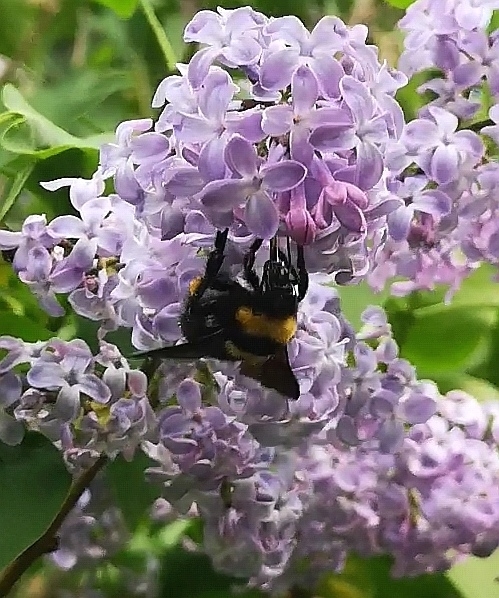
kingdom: Animalia
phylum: Arthropoda
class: Insecta
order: Hymenoptera
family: Apidae
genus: Bombus
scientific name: Bombus argillaceus
